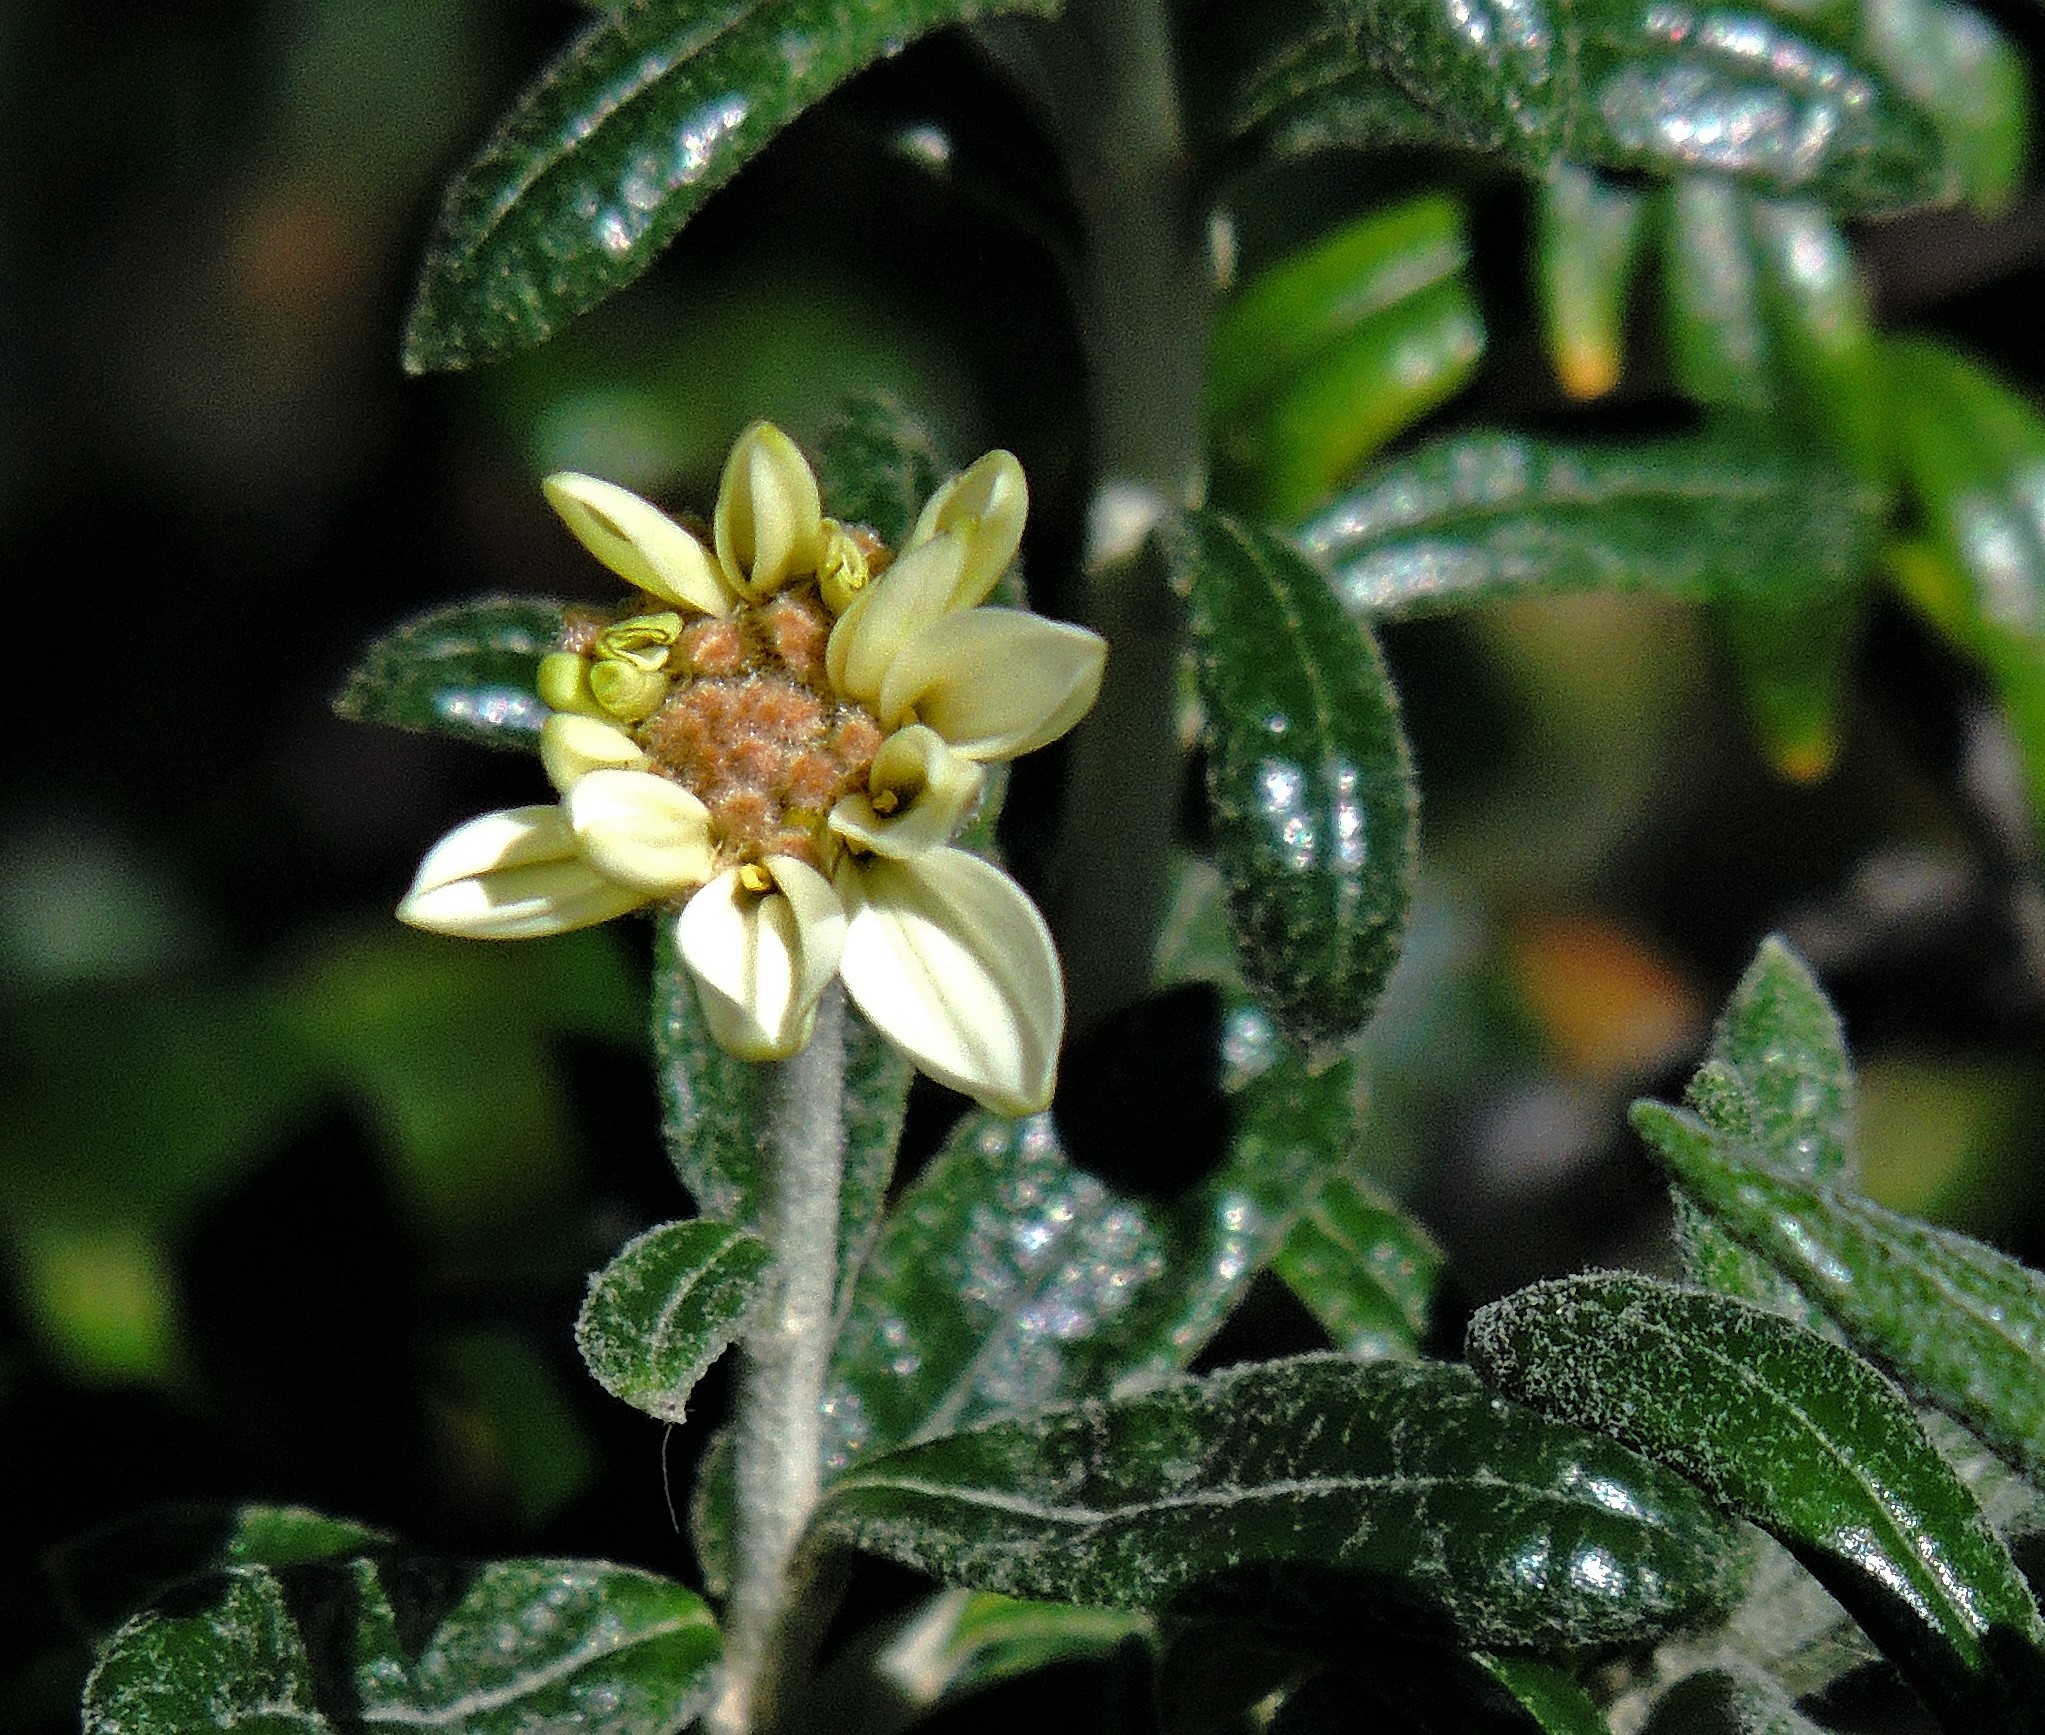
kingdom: Plantae
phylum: Tracheophyta
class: Magnoliopsida
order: Asterales
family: Asteraceae
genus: Chiliotrichum
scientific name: Chiliotrichum diffusum
